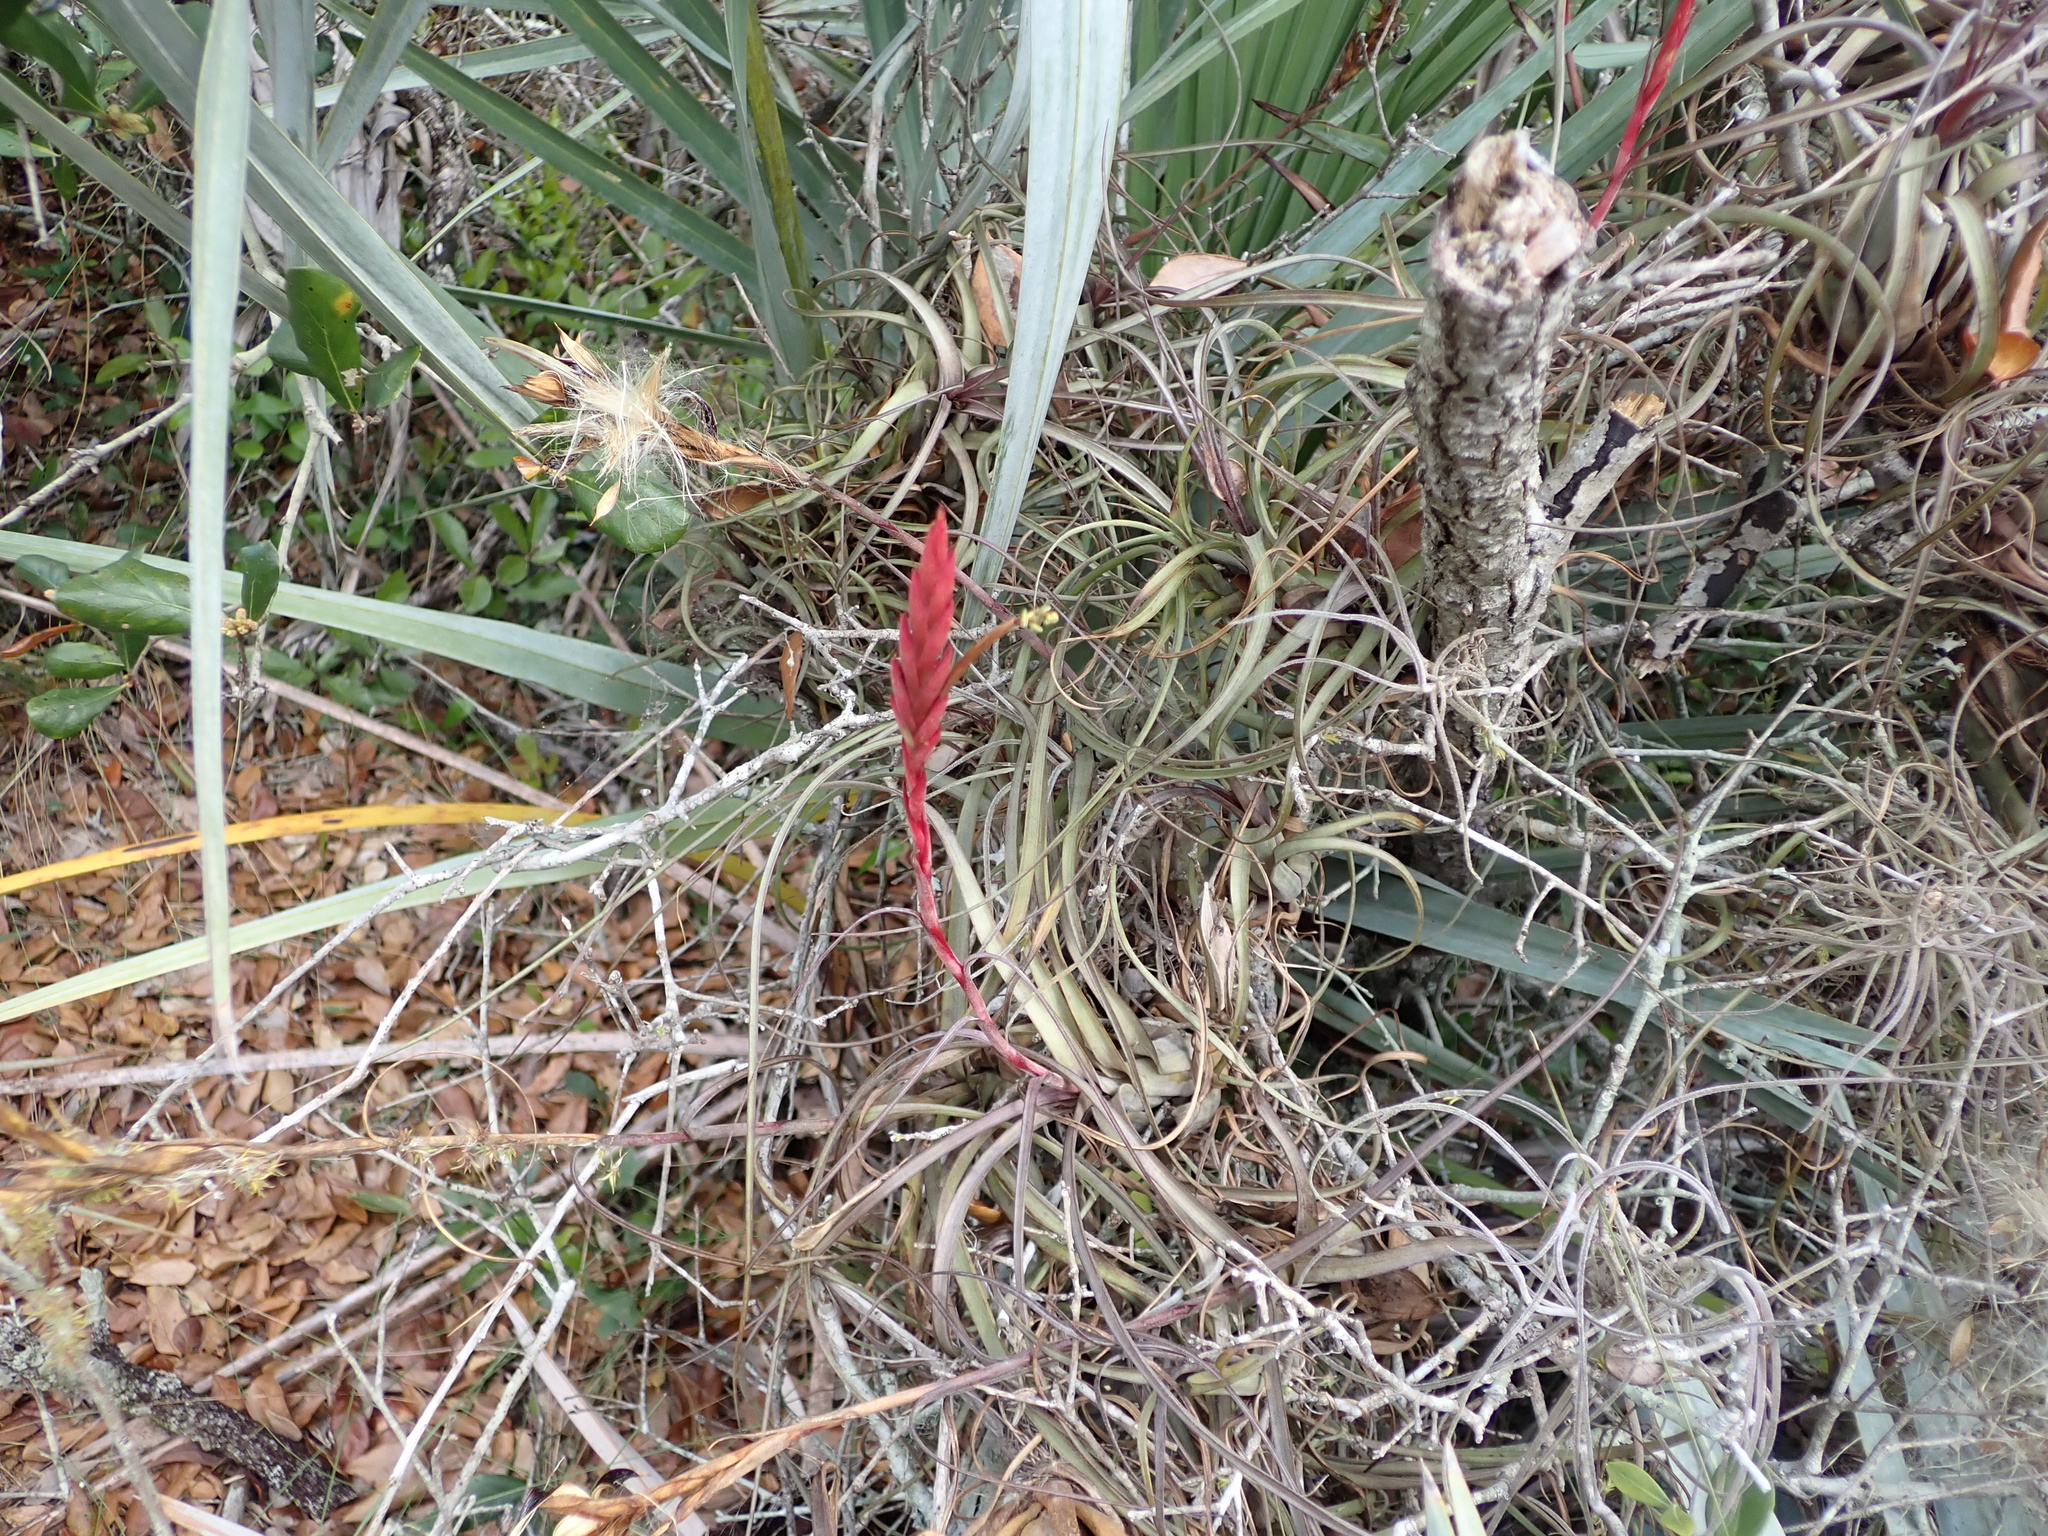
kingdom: Plantae
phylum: Tracheophyta
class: Liliopsida
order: Poales
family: Bromeliaceae
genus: Tillandsia
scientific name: Tillandsia balbisiana
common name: Northern needleleaf
